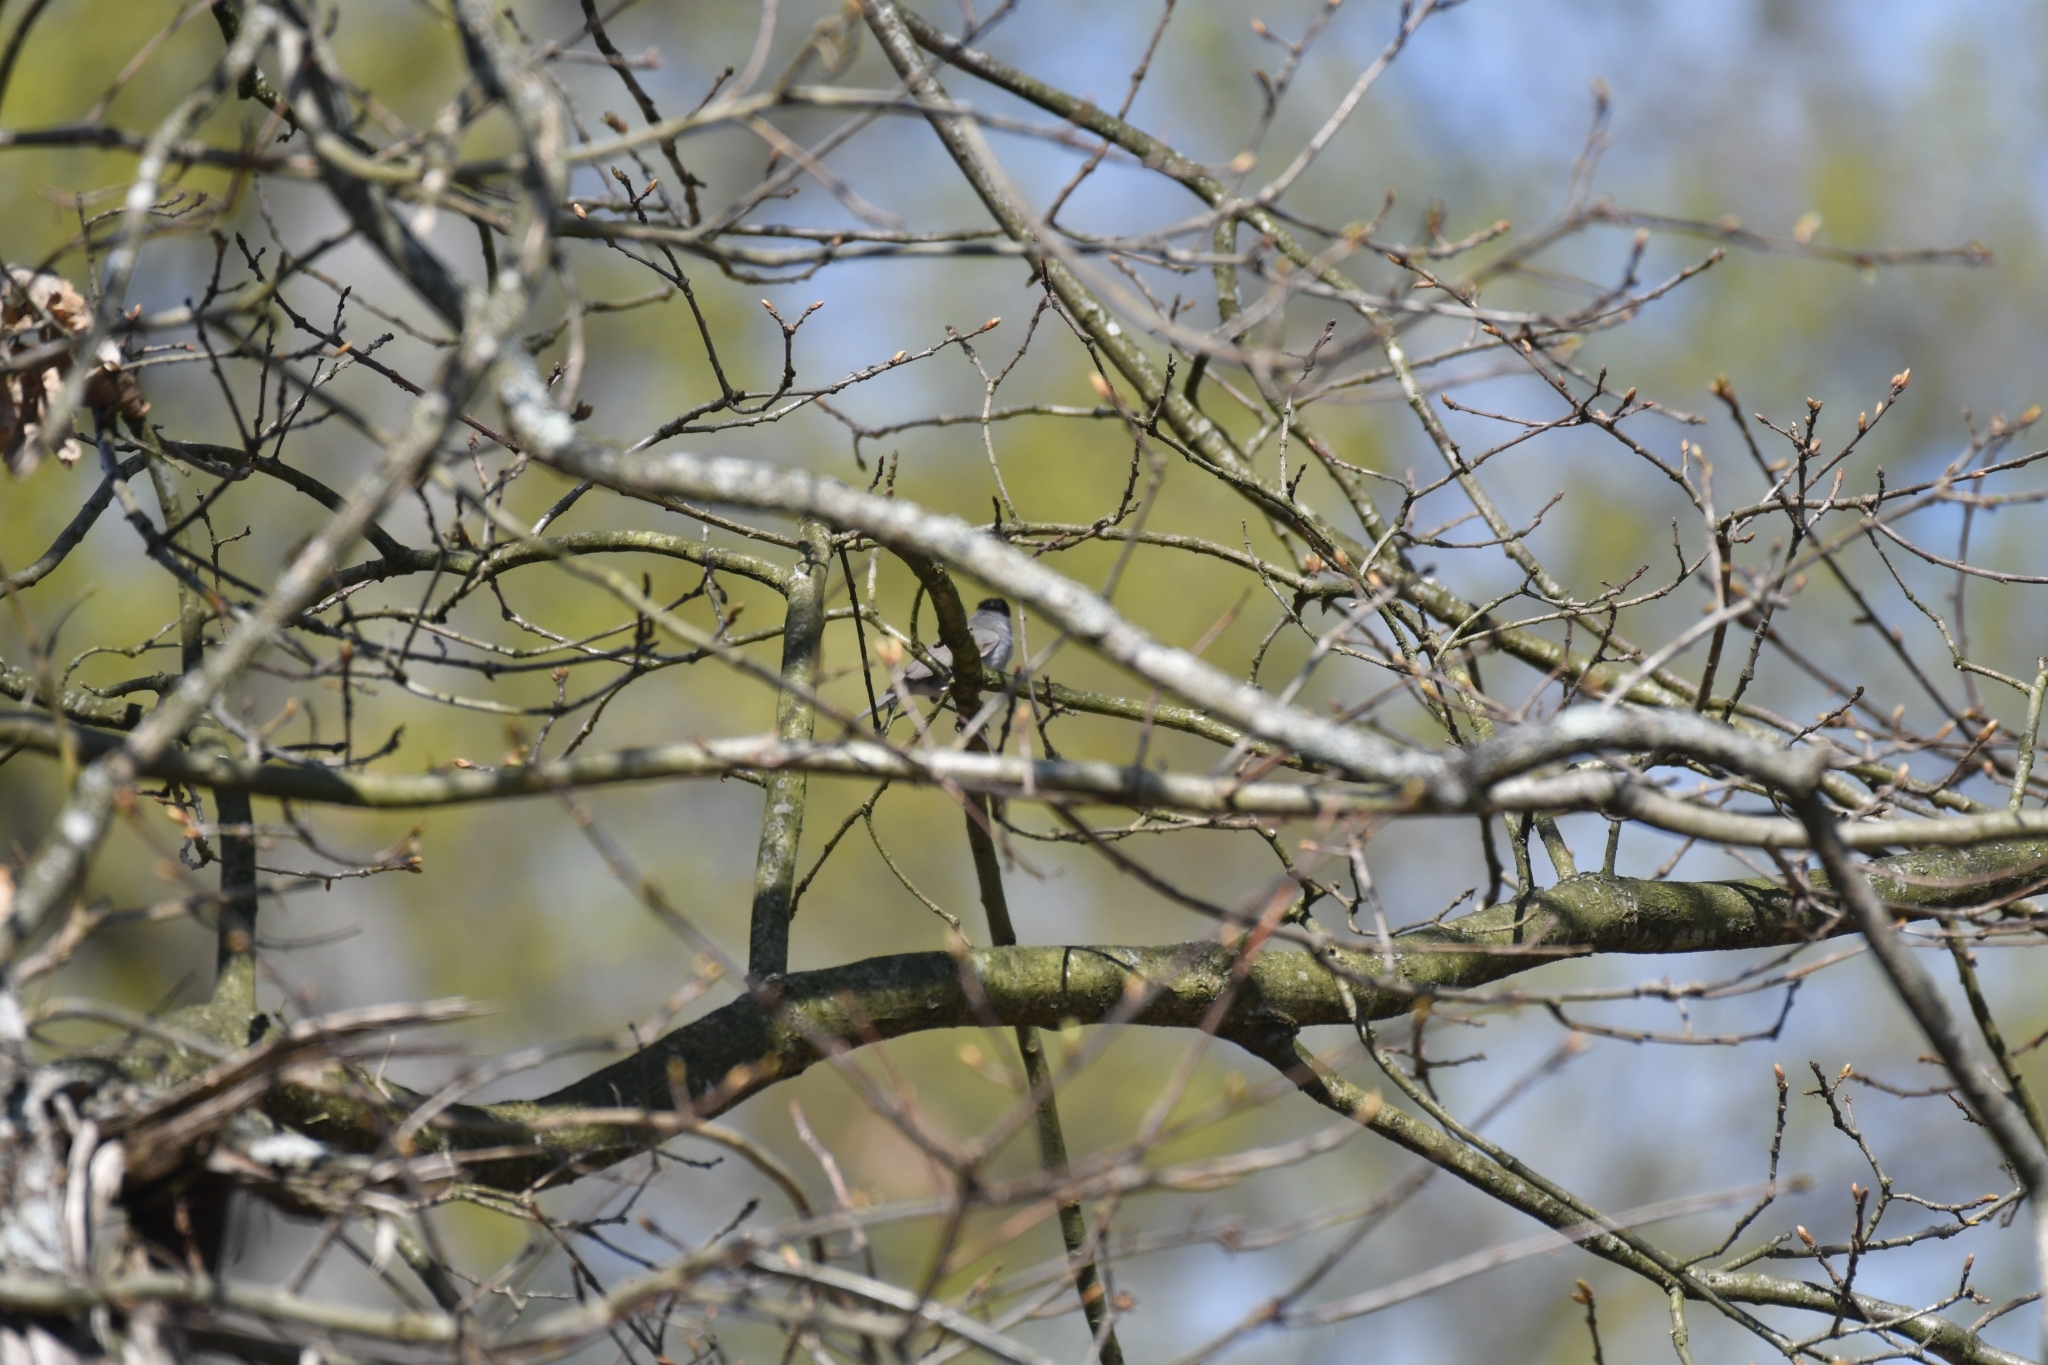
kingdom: Animalia
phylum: Chordata
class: Aves
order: Passeriformes
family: Sylviidae
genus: Sylvia
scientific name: Sylvia atricapilla
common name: Eurasian blackcap
